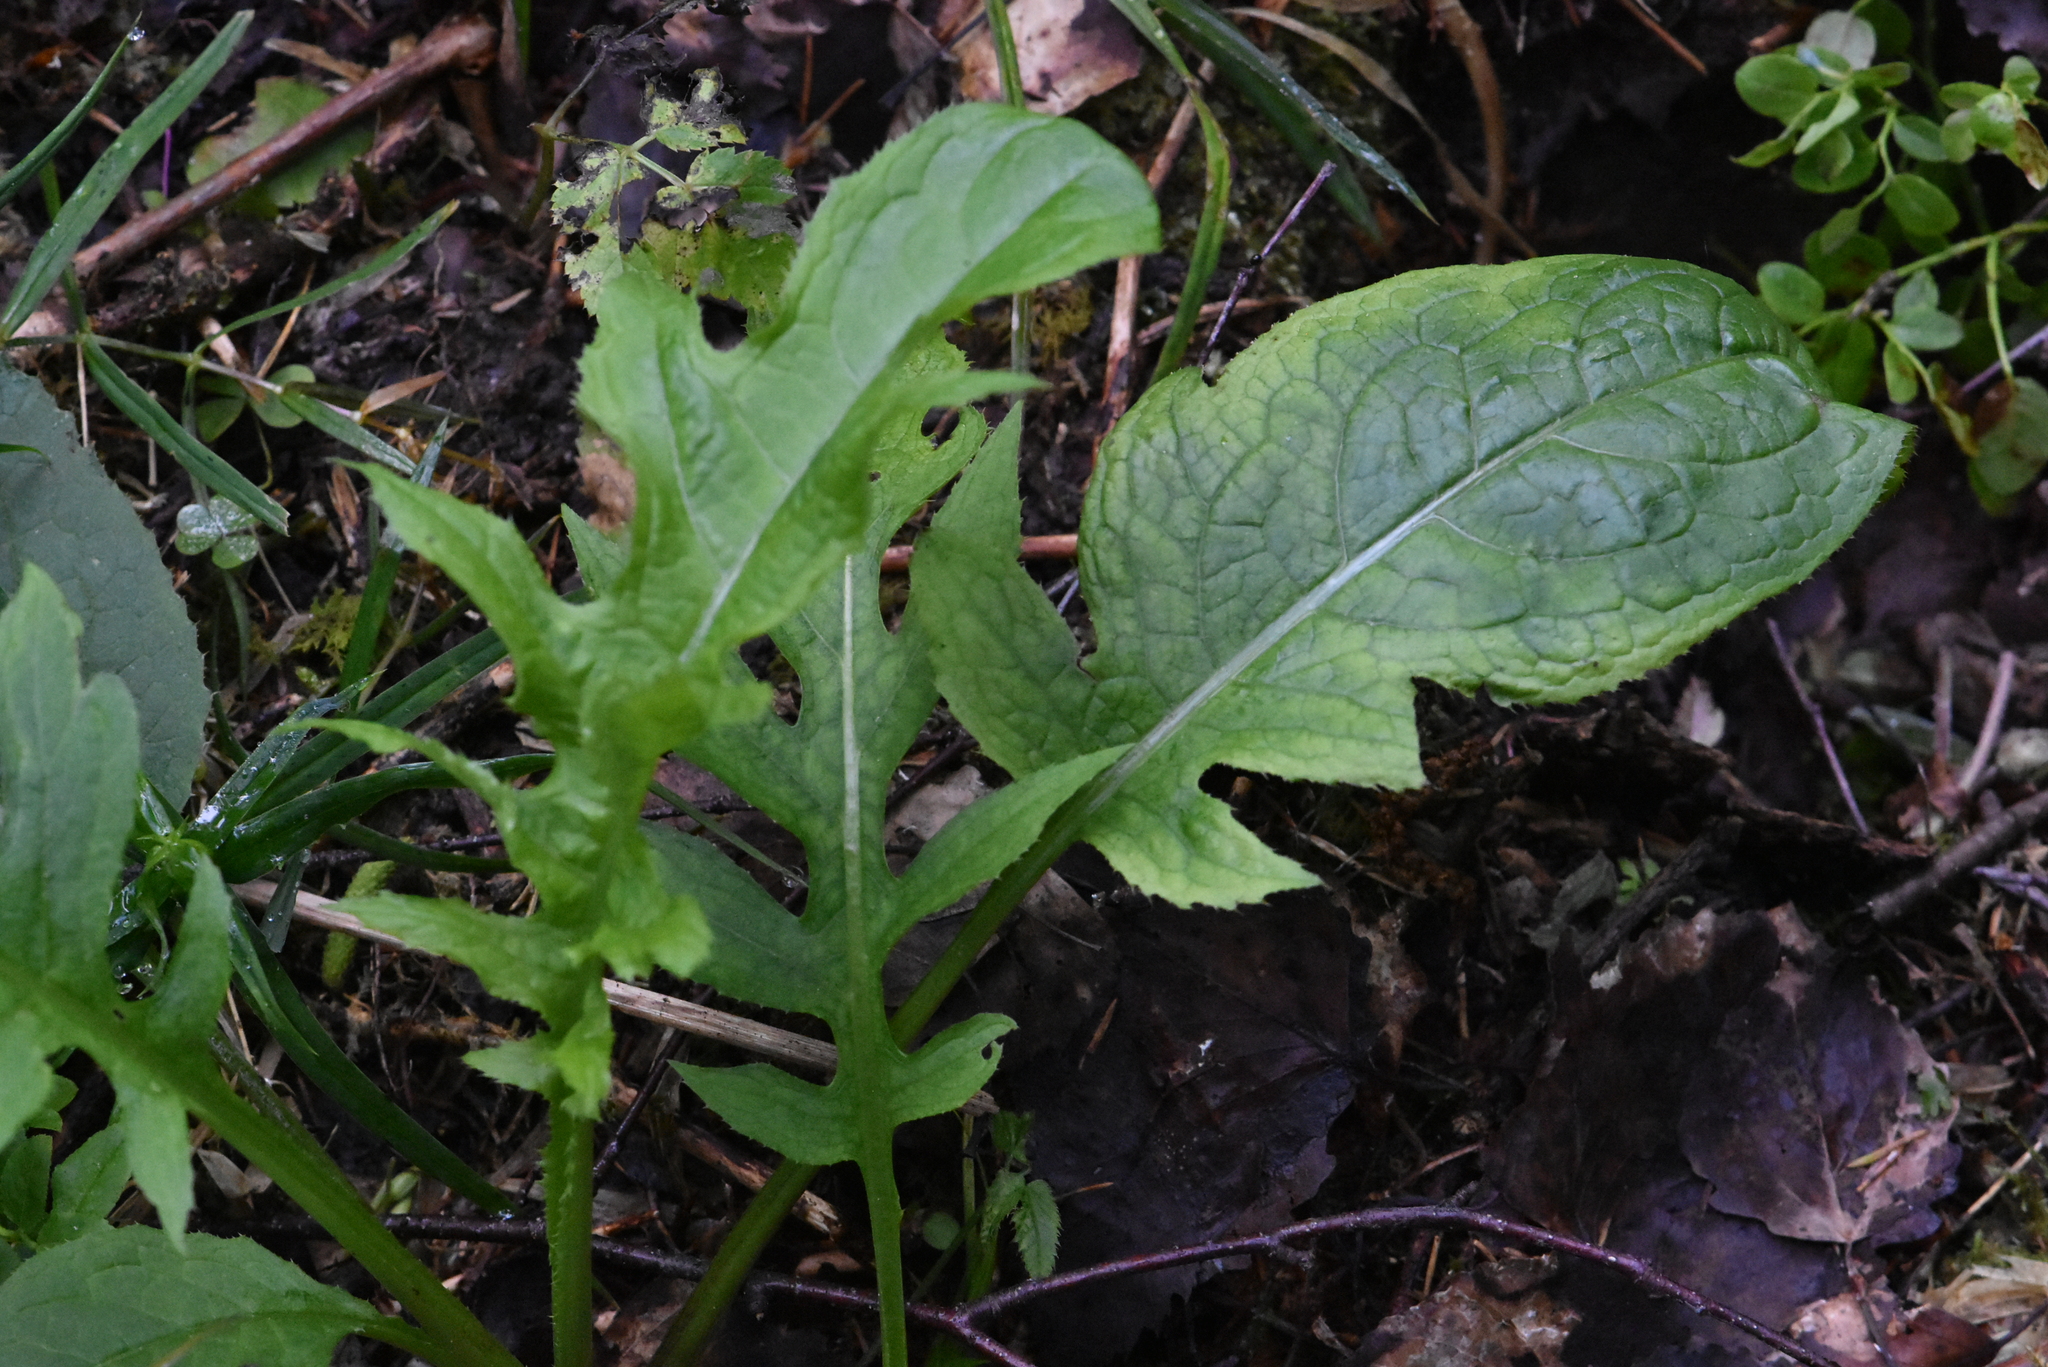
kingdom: Plantae
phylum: Tracheophyta
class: Magnoliopsida
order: Asterales
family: Asteraceae
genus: Cirsium
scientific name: Cirsium oleraceum
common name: Cabbage thistle
